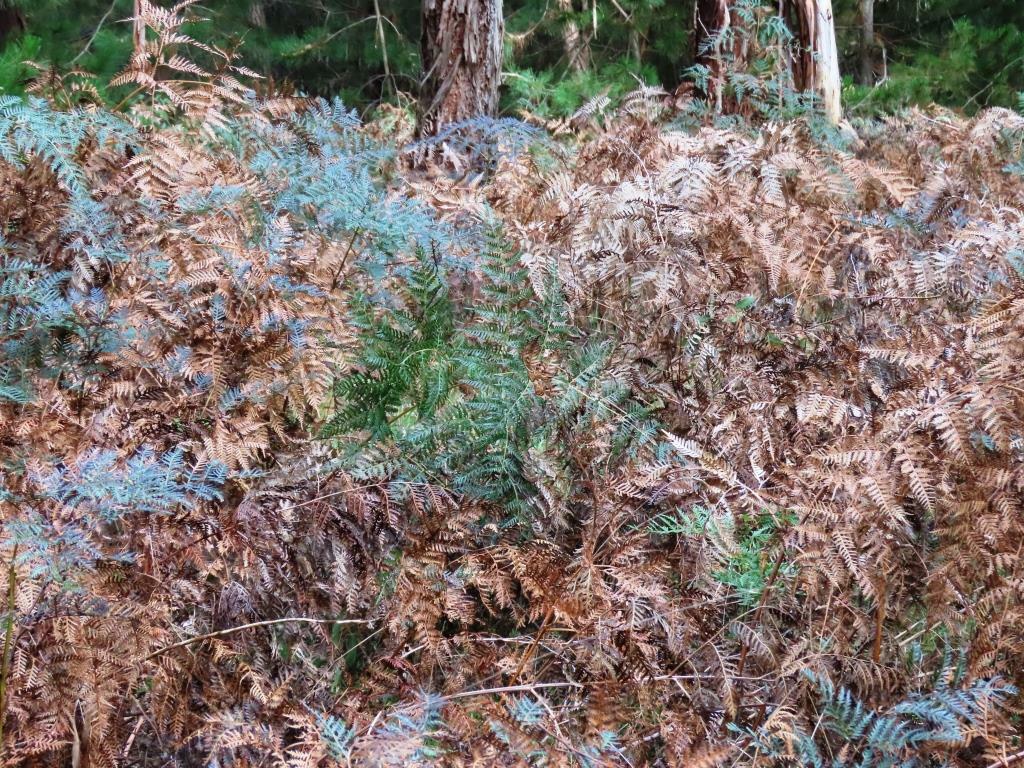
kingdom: Plantae
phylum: Tracheophyta
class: Polypodiopsida
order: Polypodiales
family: Dennstaedtiaceae
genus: Pteridium
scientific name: Pteridium esculentum
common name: Bracken fern
